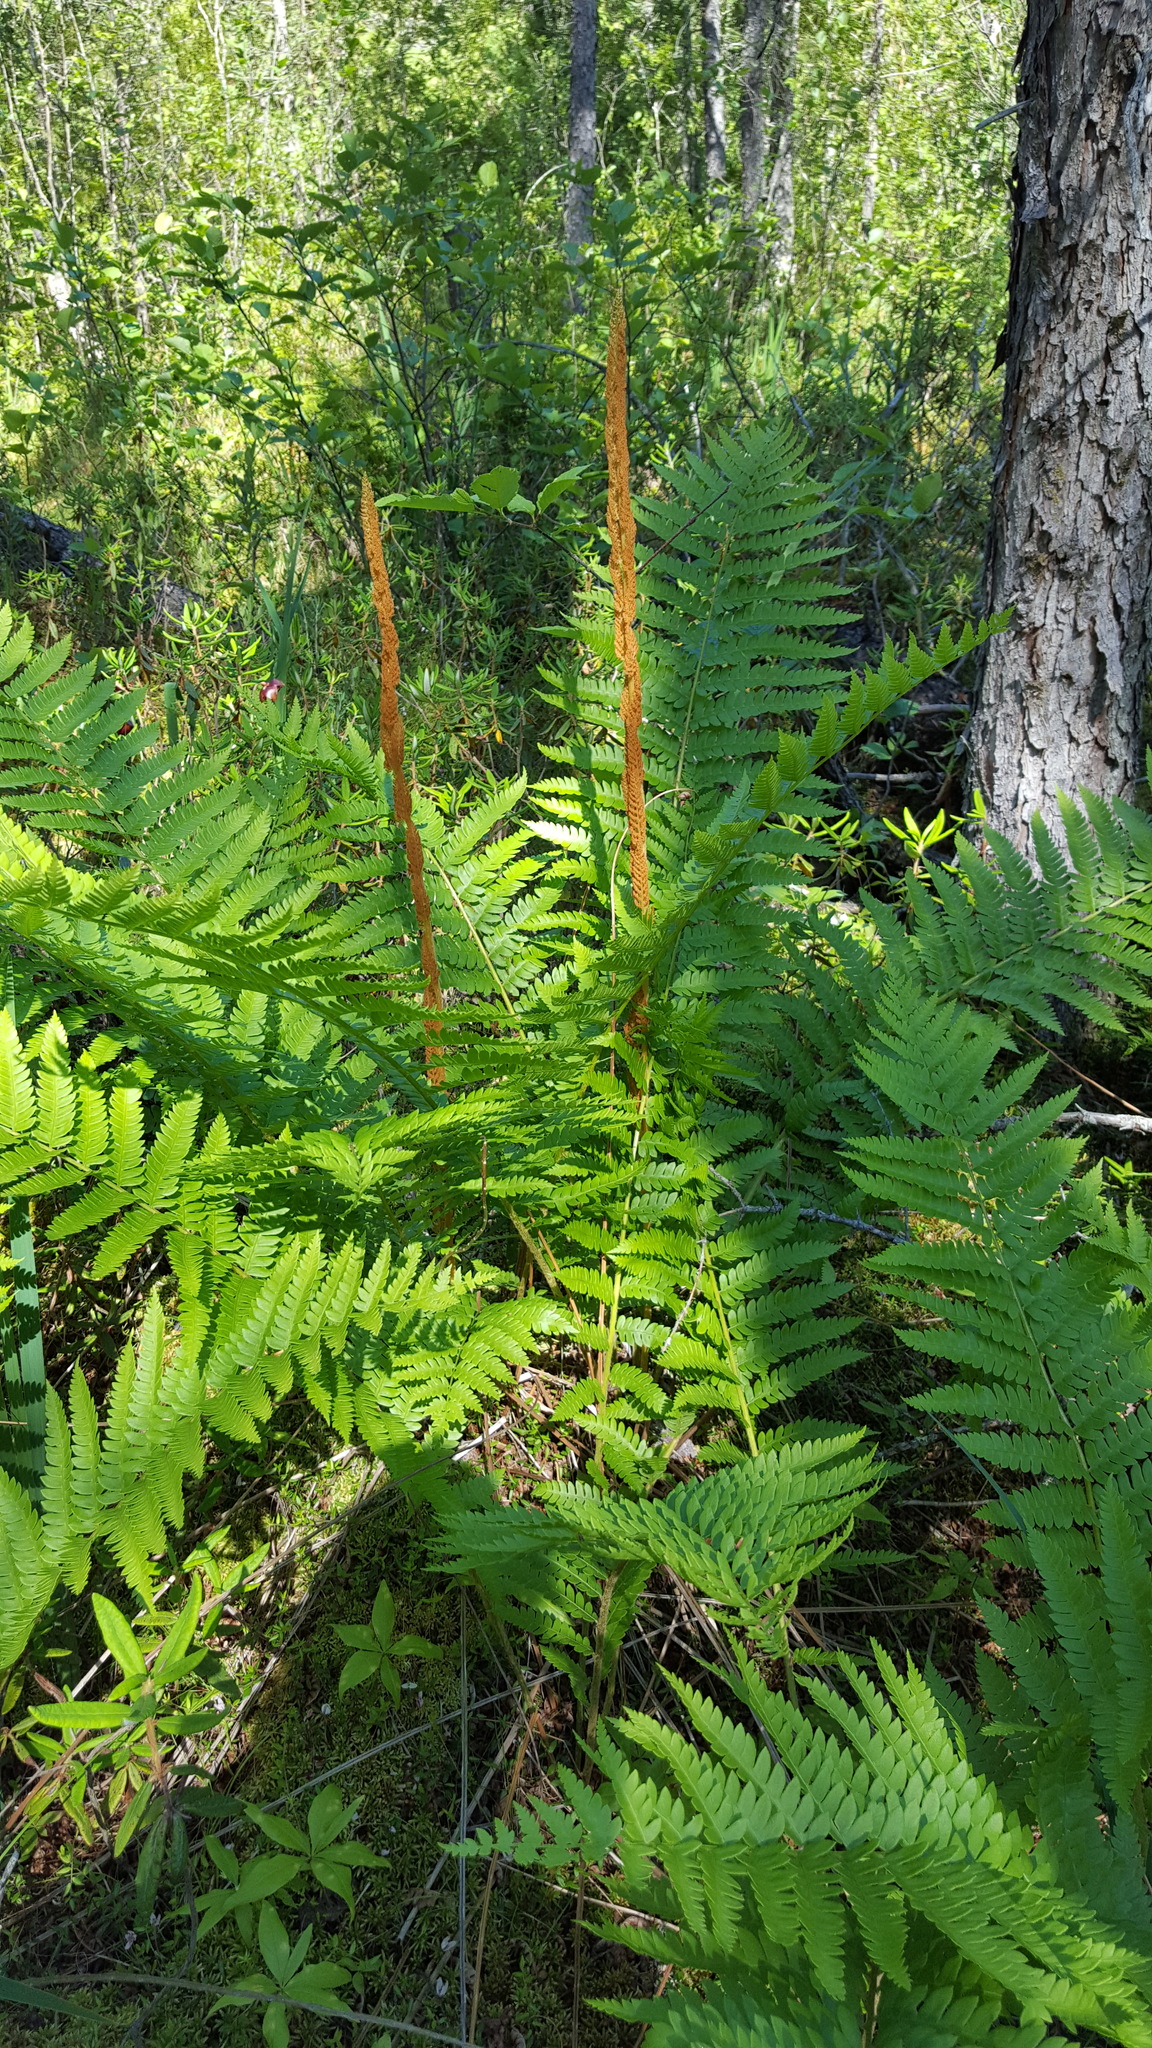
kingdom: Plantae
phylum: Tracheophyta
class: Polypodiopsida
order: Osmundales
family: Osmundaceae
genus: Osmundastrum
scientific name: Osmundastrum cinnamomeum
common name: Cinnamon fern
